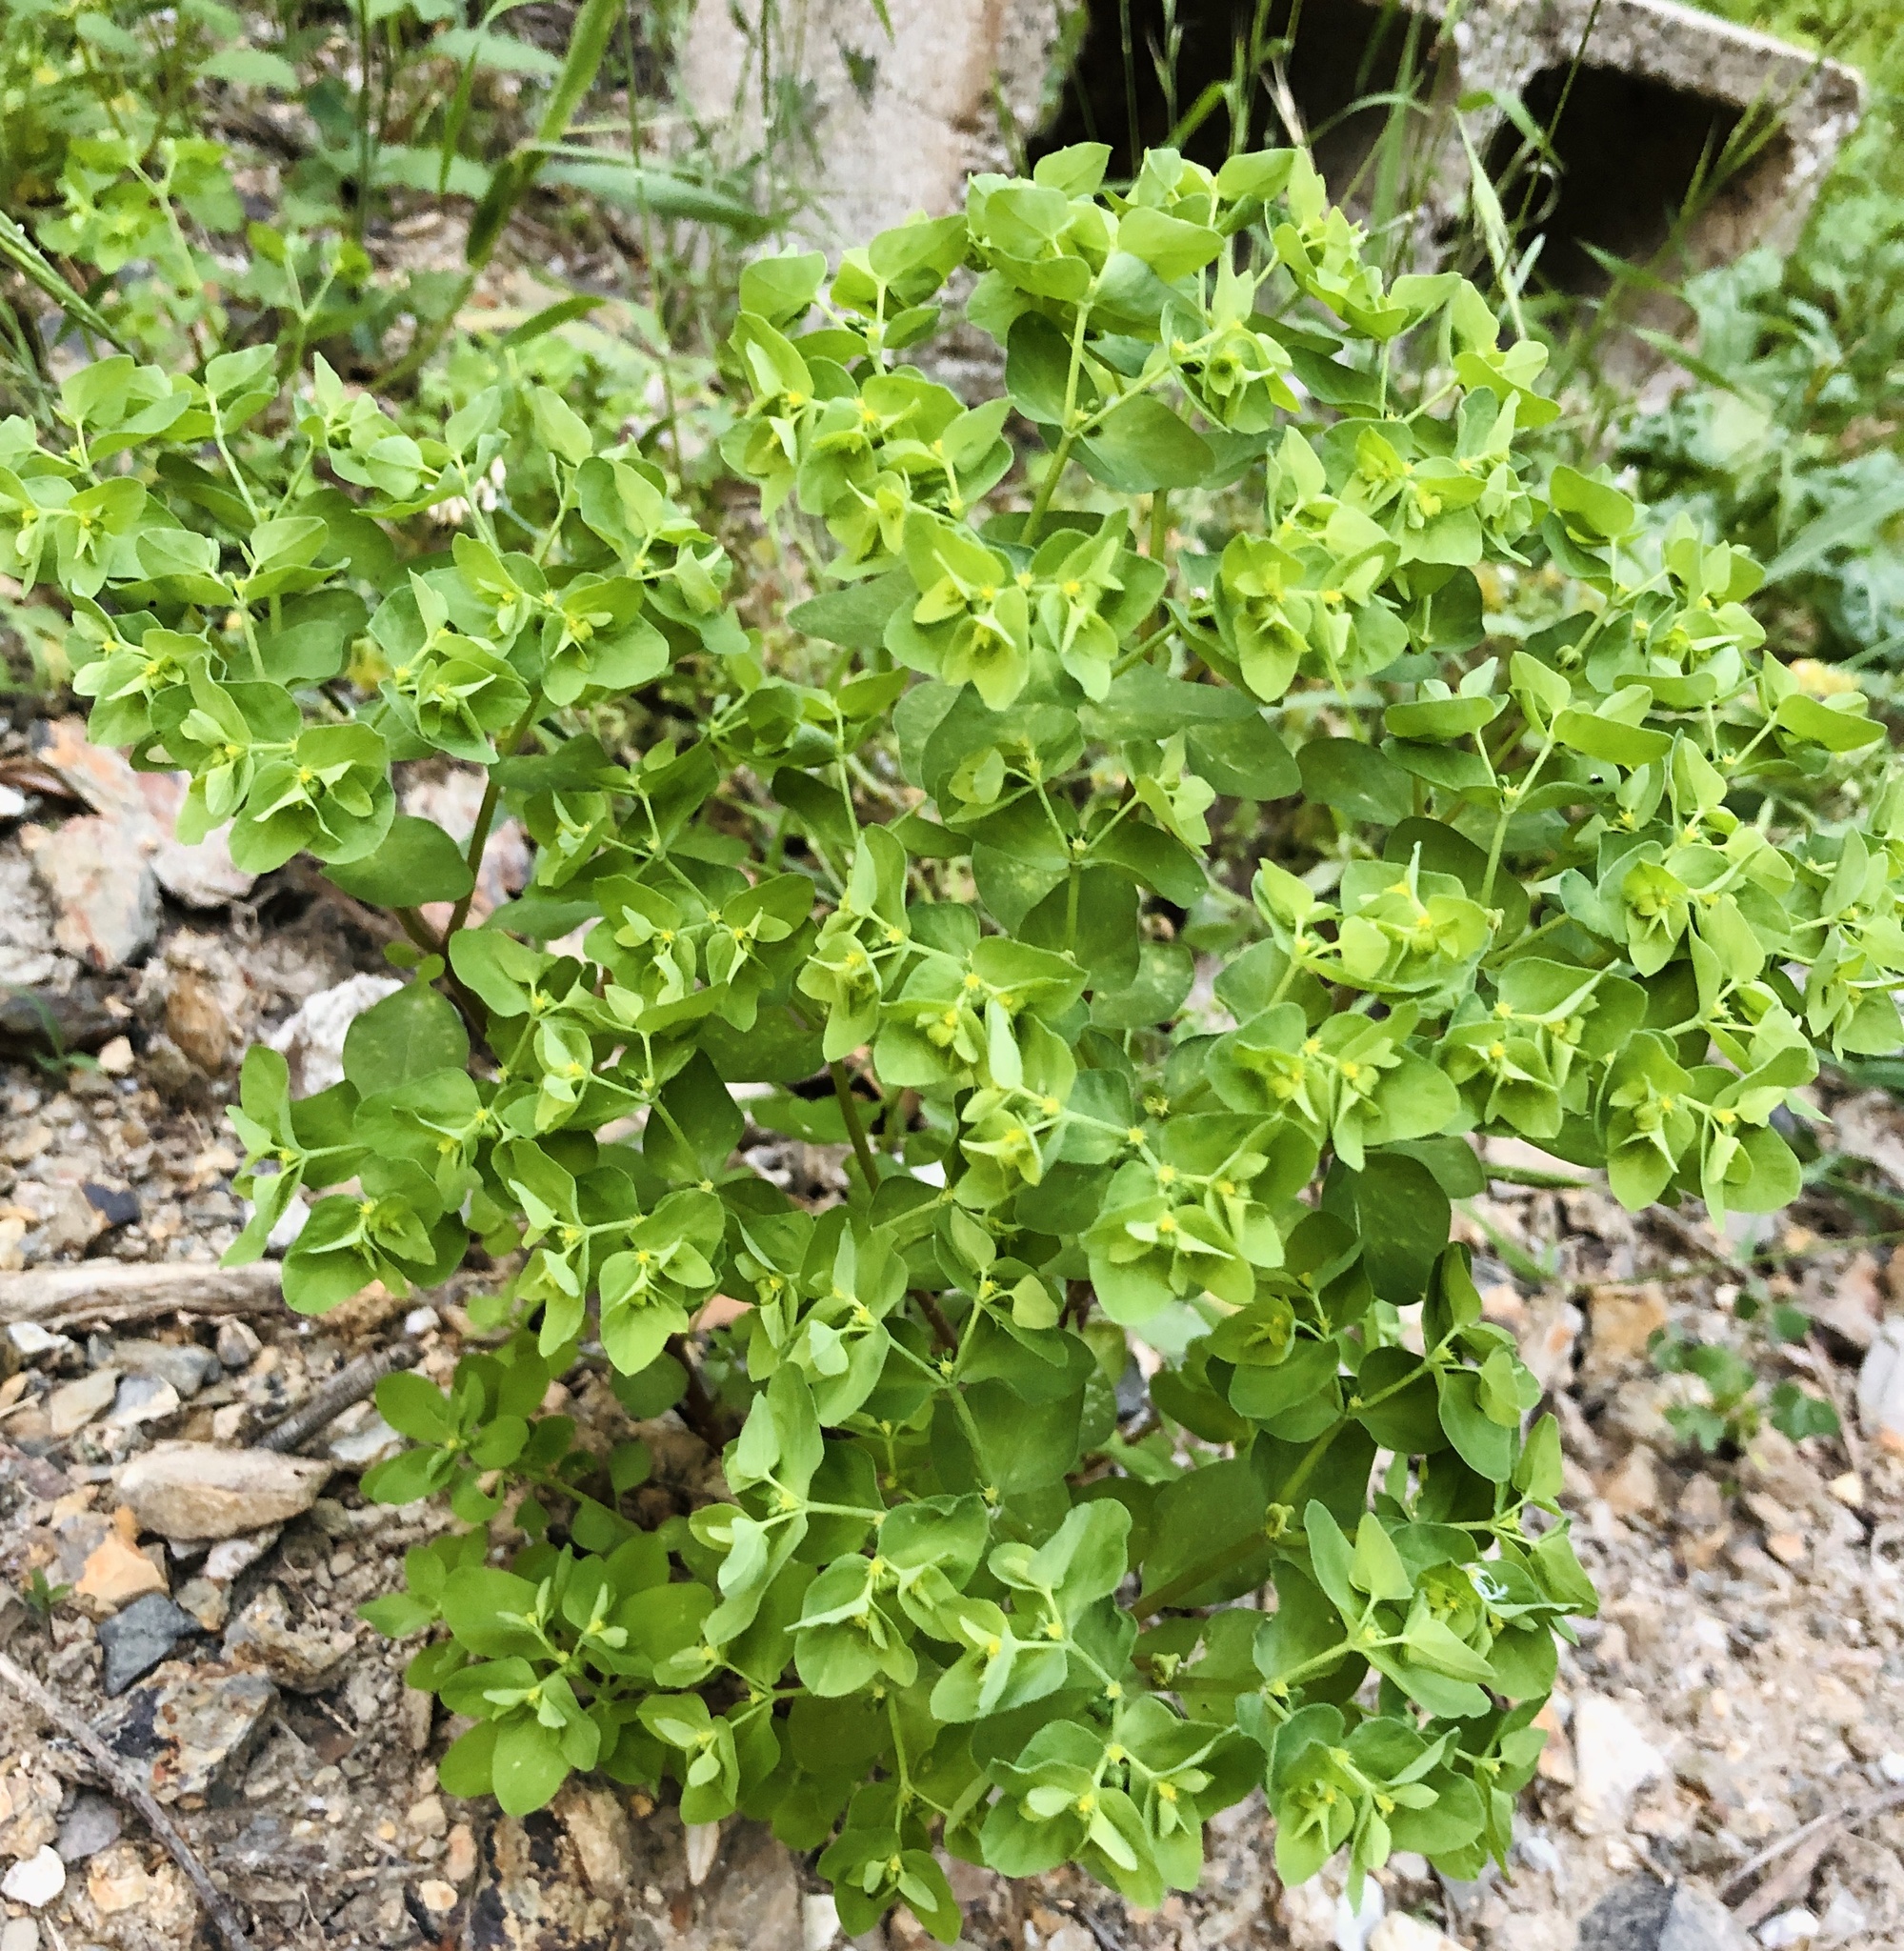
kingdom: Plantae
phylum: Tracheophyta
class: Magnoliopsida
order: Malpighiales
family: Euphorbiaceae
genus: Euphorbia
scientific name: Euphorbia peplus
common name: Petty spurge
